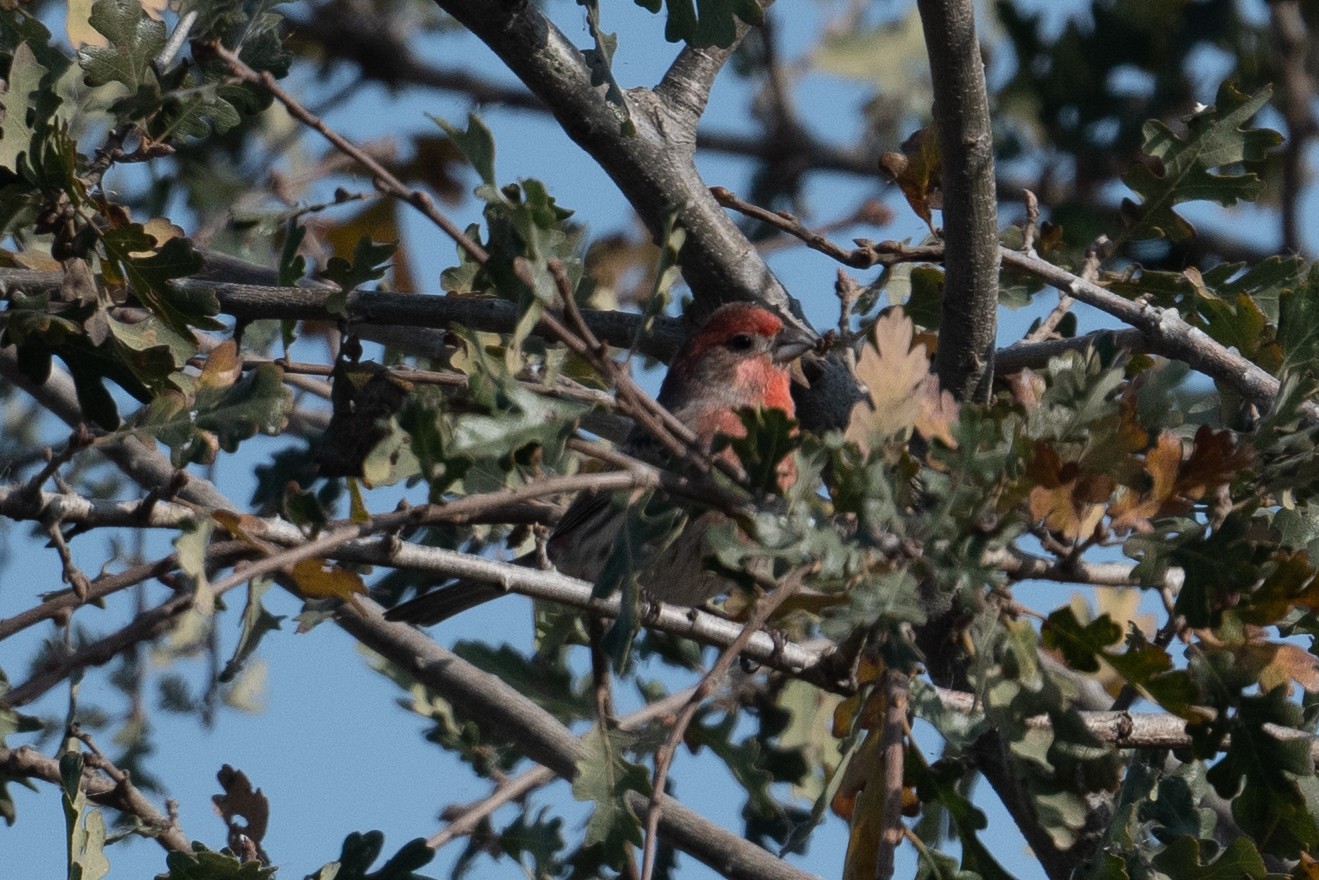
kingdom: Animalia
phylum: Chordata
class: Aves
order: Passeriformes
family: Fringillidae
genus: Haemorhous
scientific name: Haemorhous mexicanus
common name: House finch
